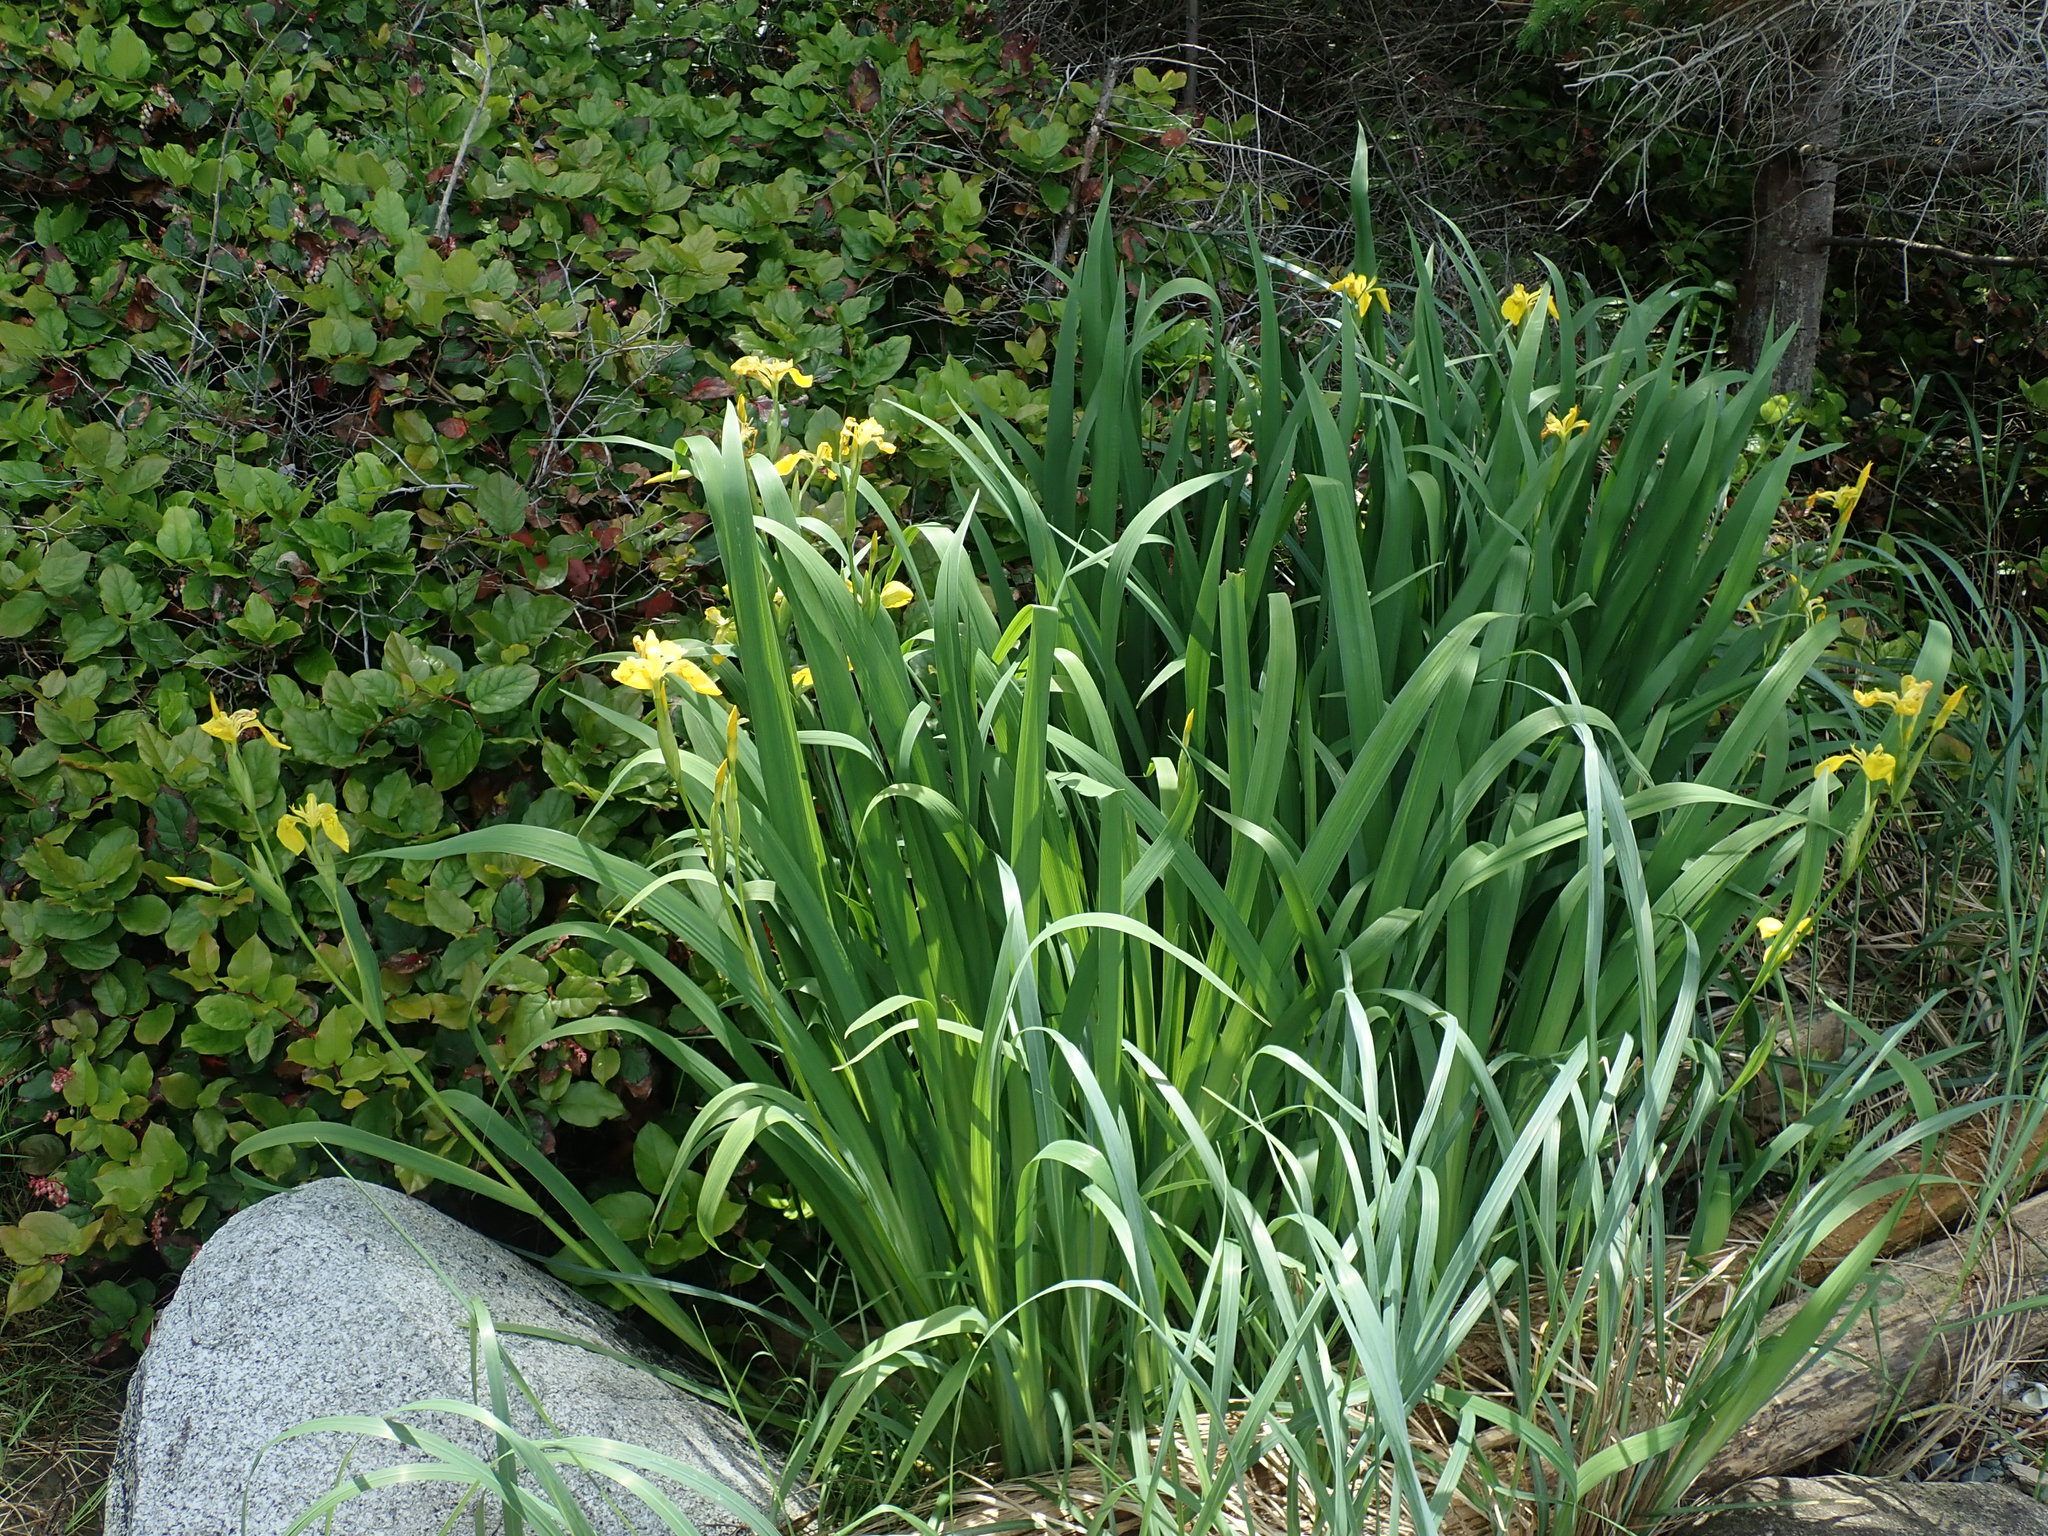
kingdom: Plantae
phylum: Tracheophyta
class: Liliopsida
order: Asparagales
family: Iridaceae
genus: Iris
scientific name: Iris pseudacorus
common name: Yellow flag
